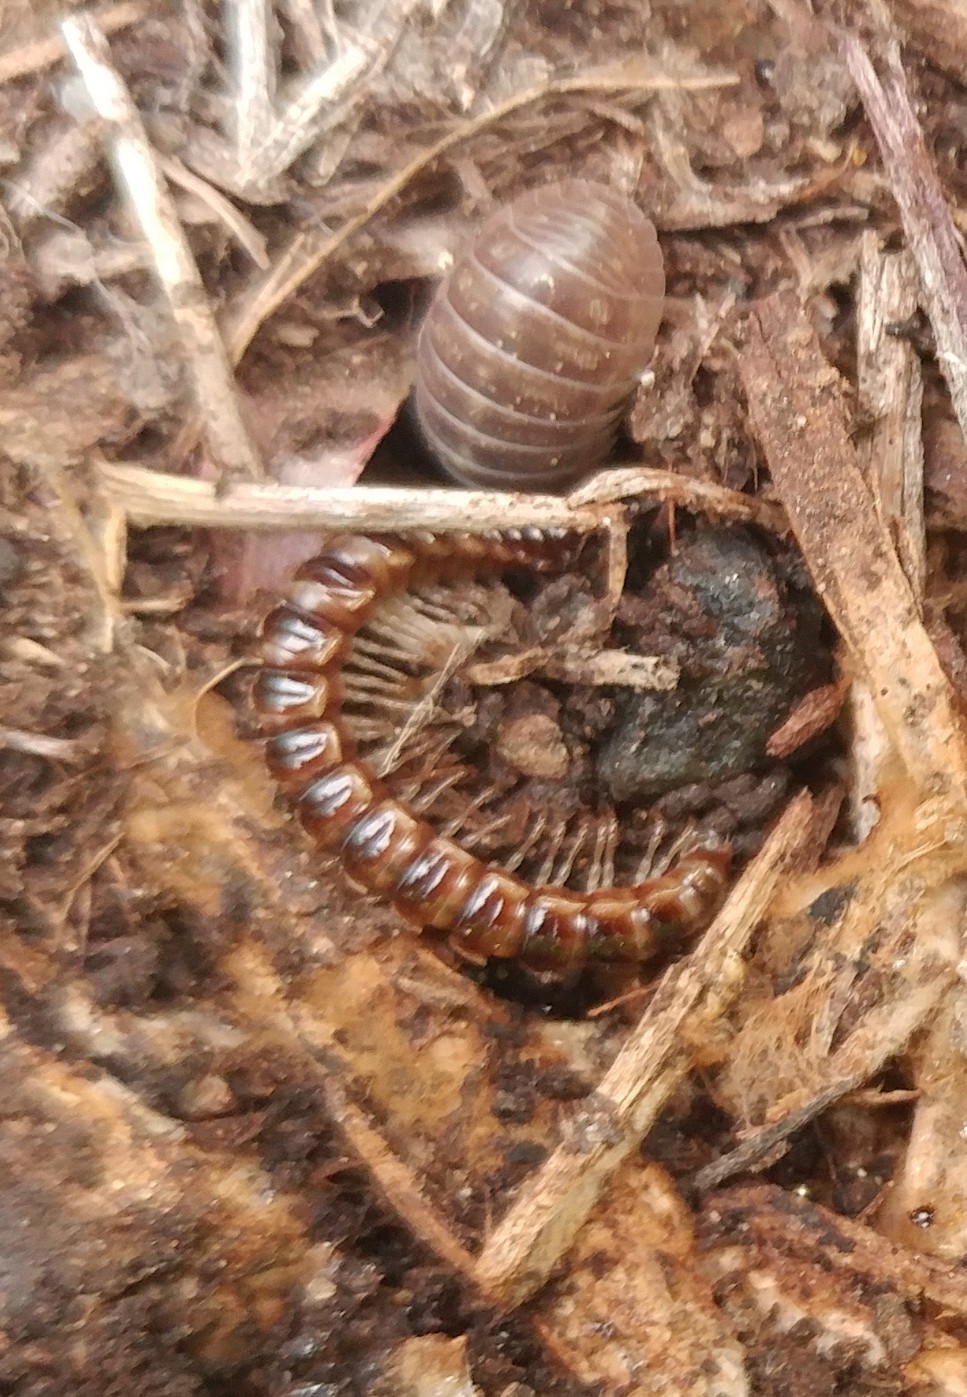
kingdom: Animalia
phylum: Arthropoda
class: Diplopoda
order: Polydesmida
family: Paradoxosomatidae
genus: Oxidus
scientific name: Oxidus gracilis
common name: Greenhouse millipede
